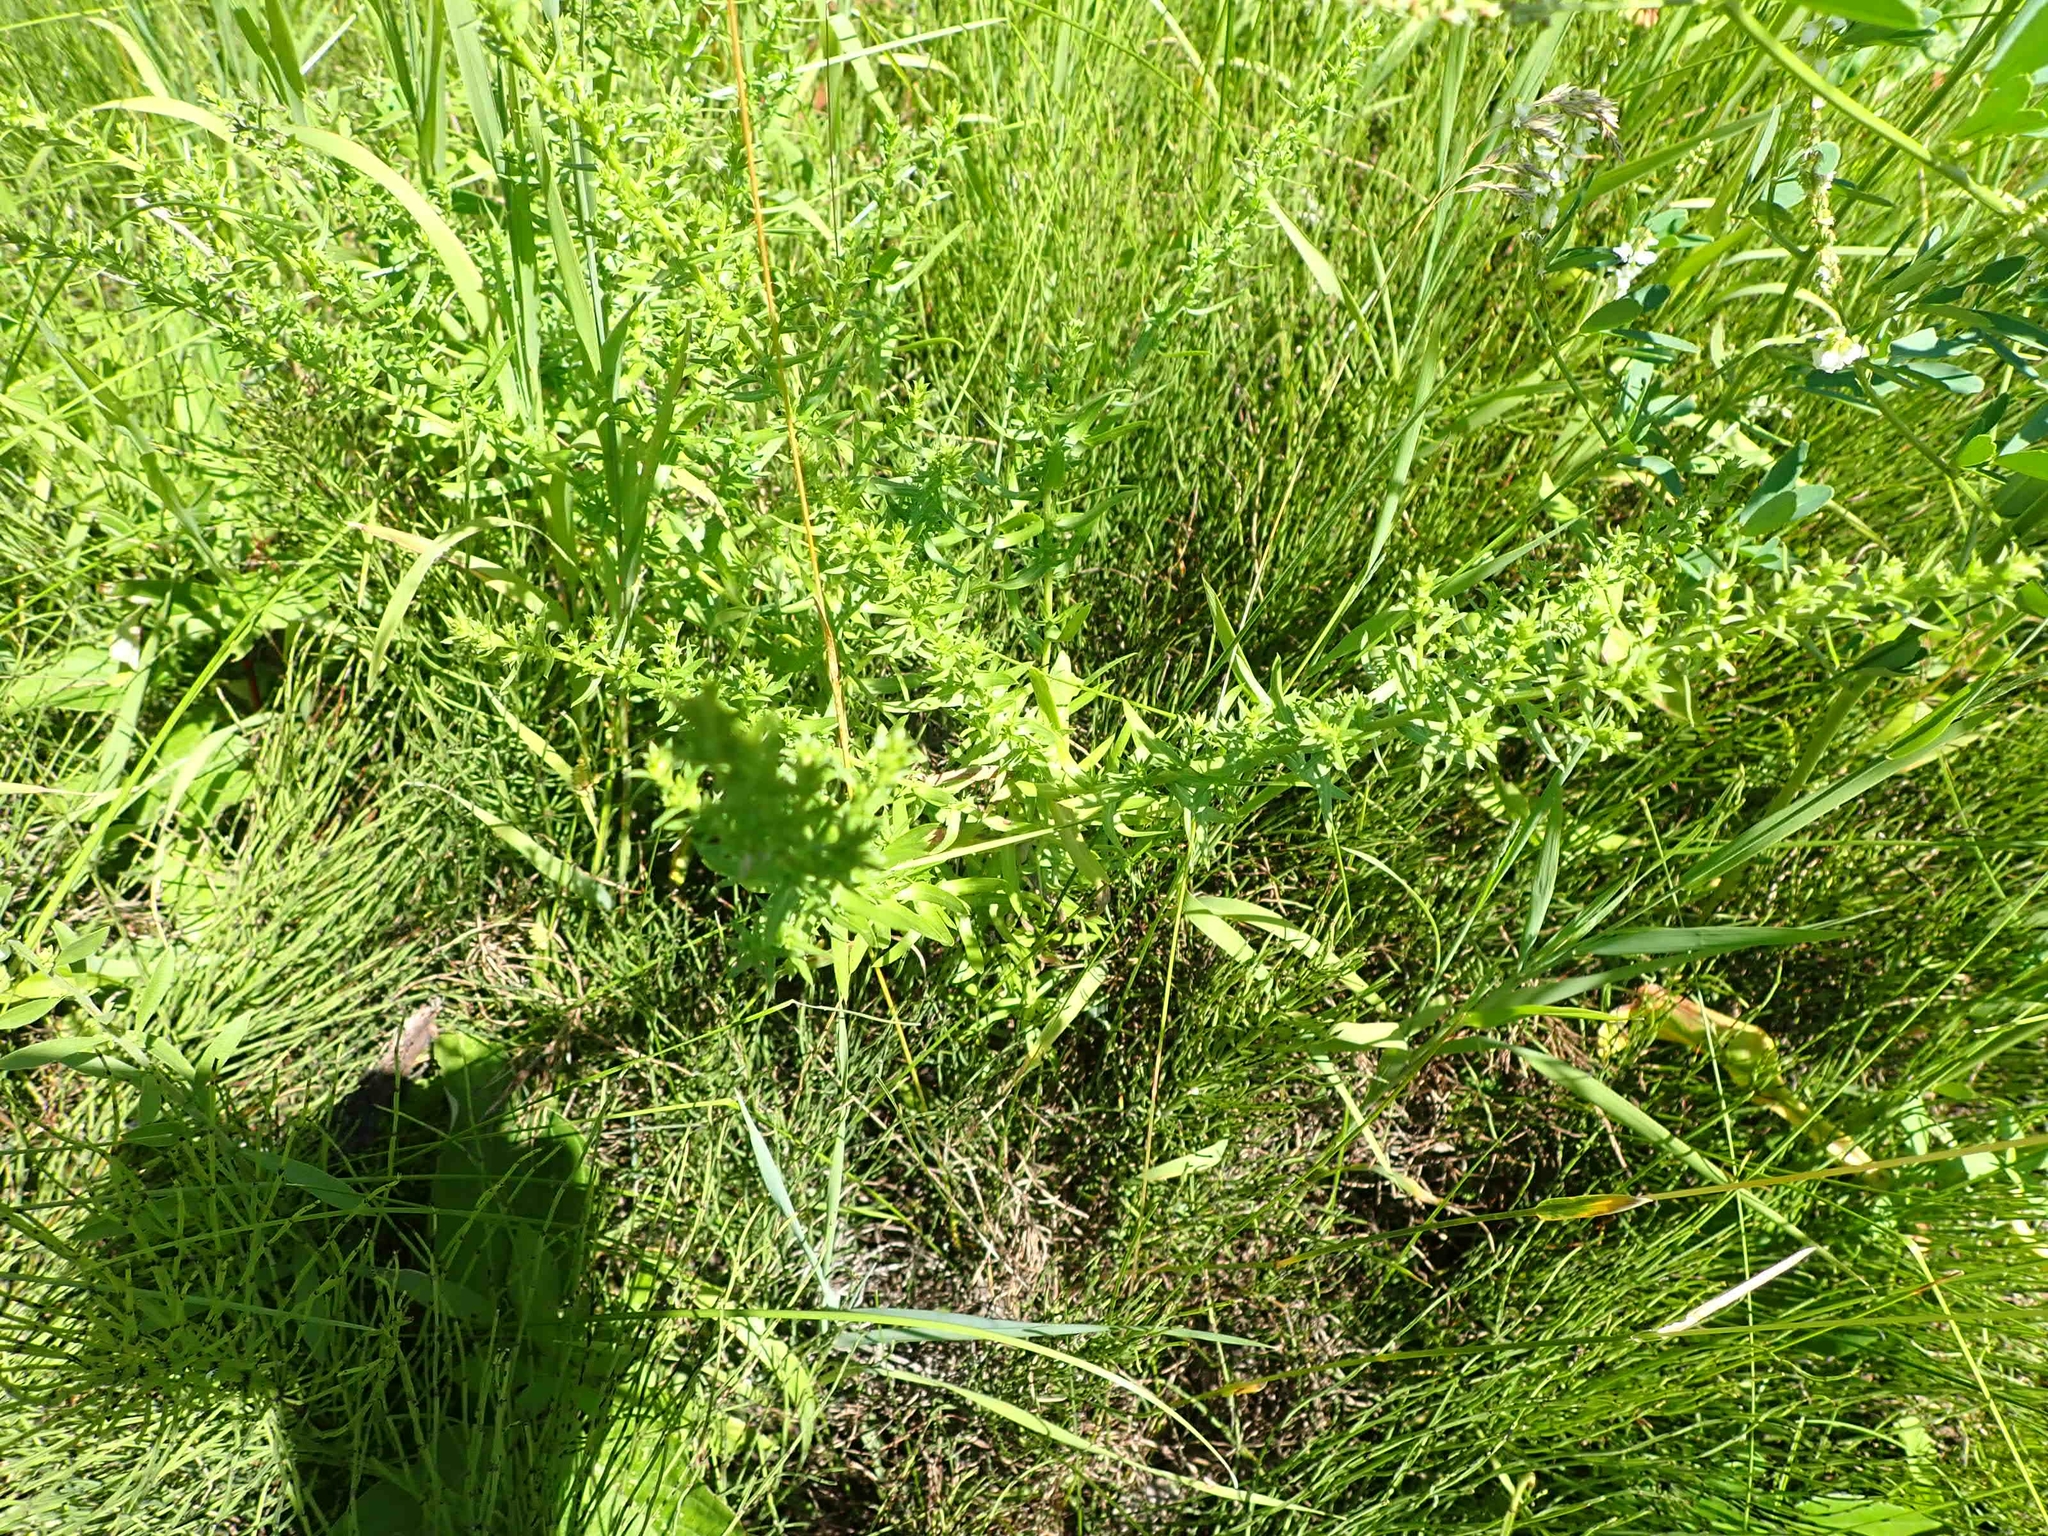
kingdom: Plantae
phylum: Tracheophyta
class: Magnoliopsida
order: Asterales
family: Asteraceae
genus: Symphyotrichum
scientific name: Symphyotrichum ericoides
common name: Heath aster
